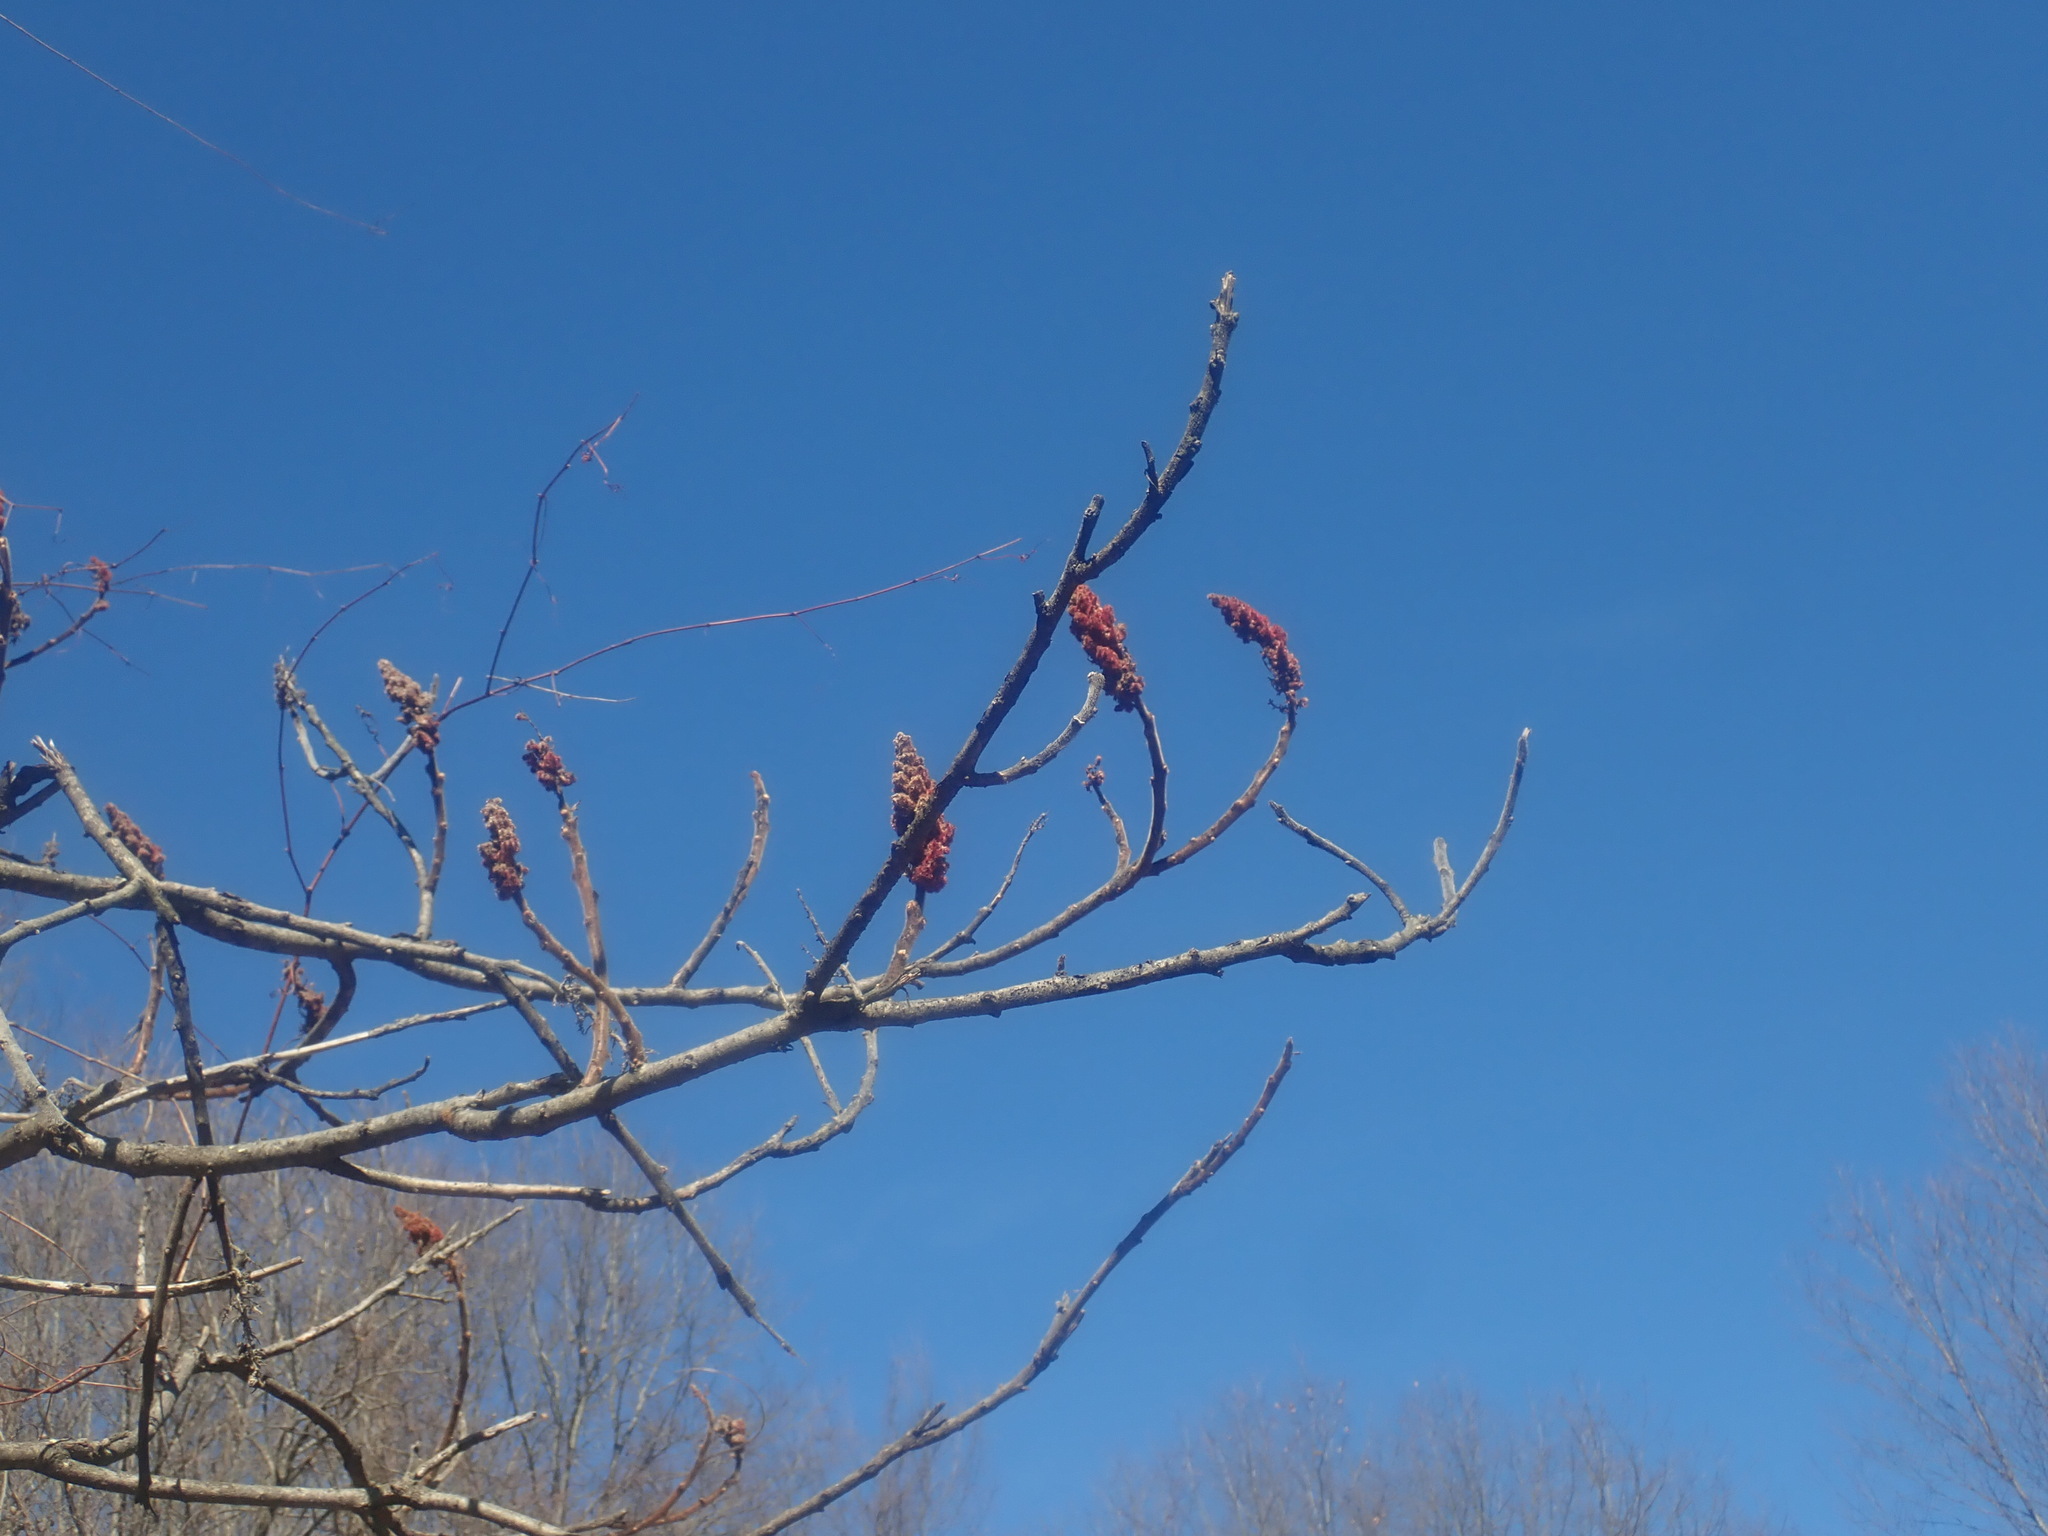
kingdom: Plantae
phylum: Tracheophyta
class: Magnoliopsida
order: Sapindales
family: Anacardiaceae
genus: Rhus
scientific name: Rhus typhina
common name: Staghorn sumac
